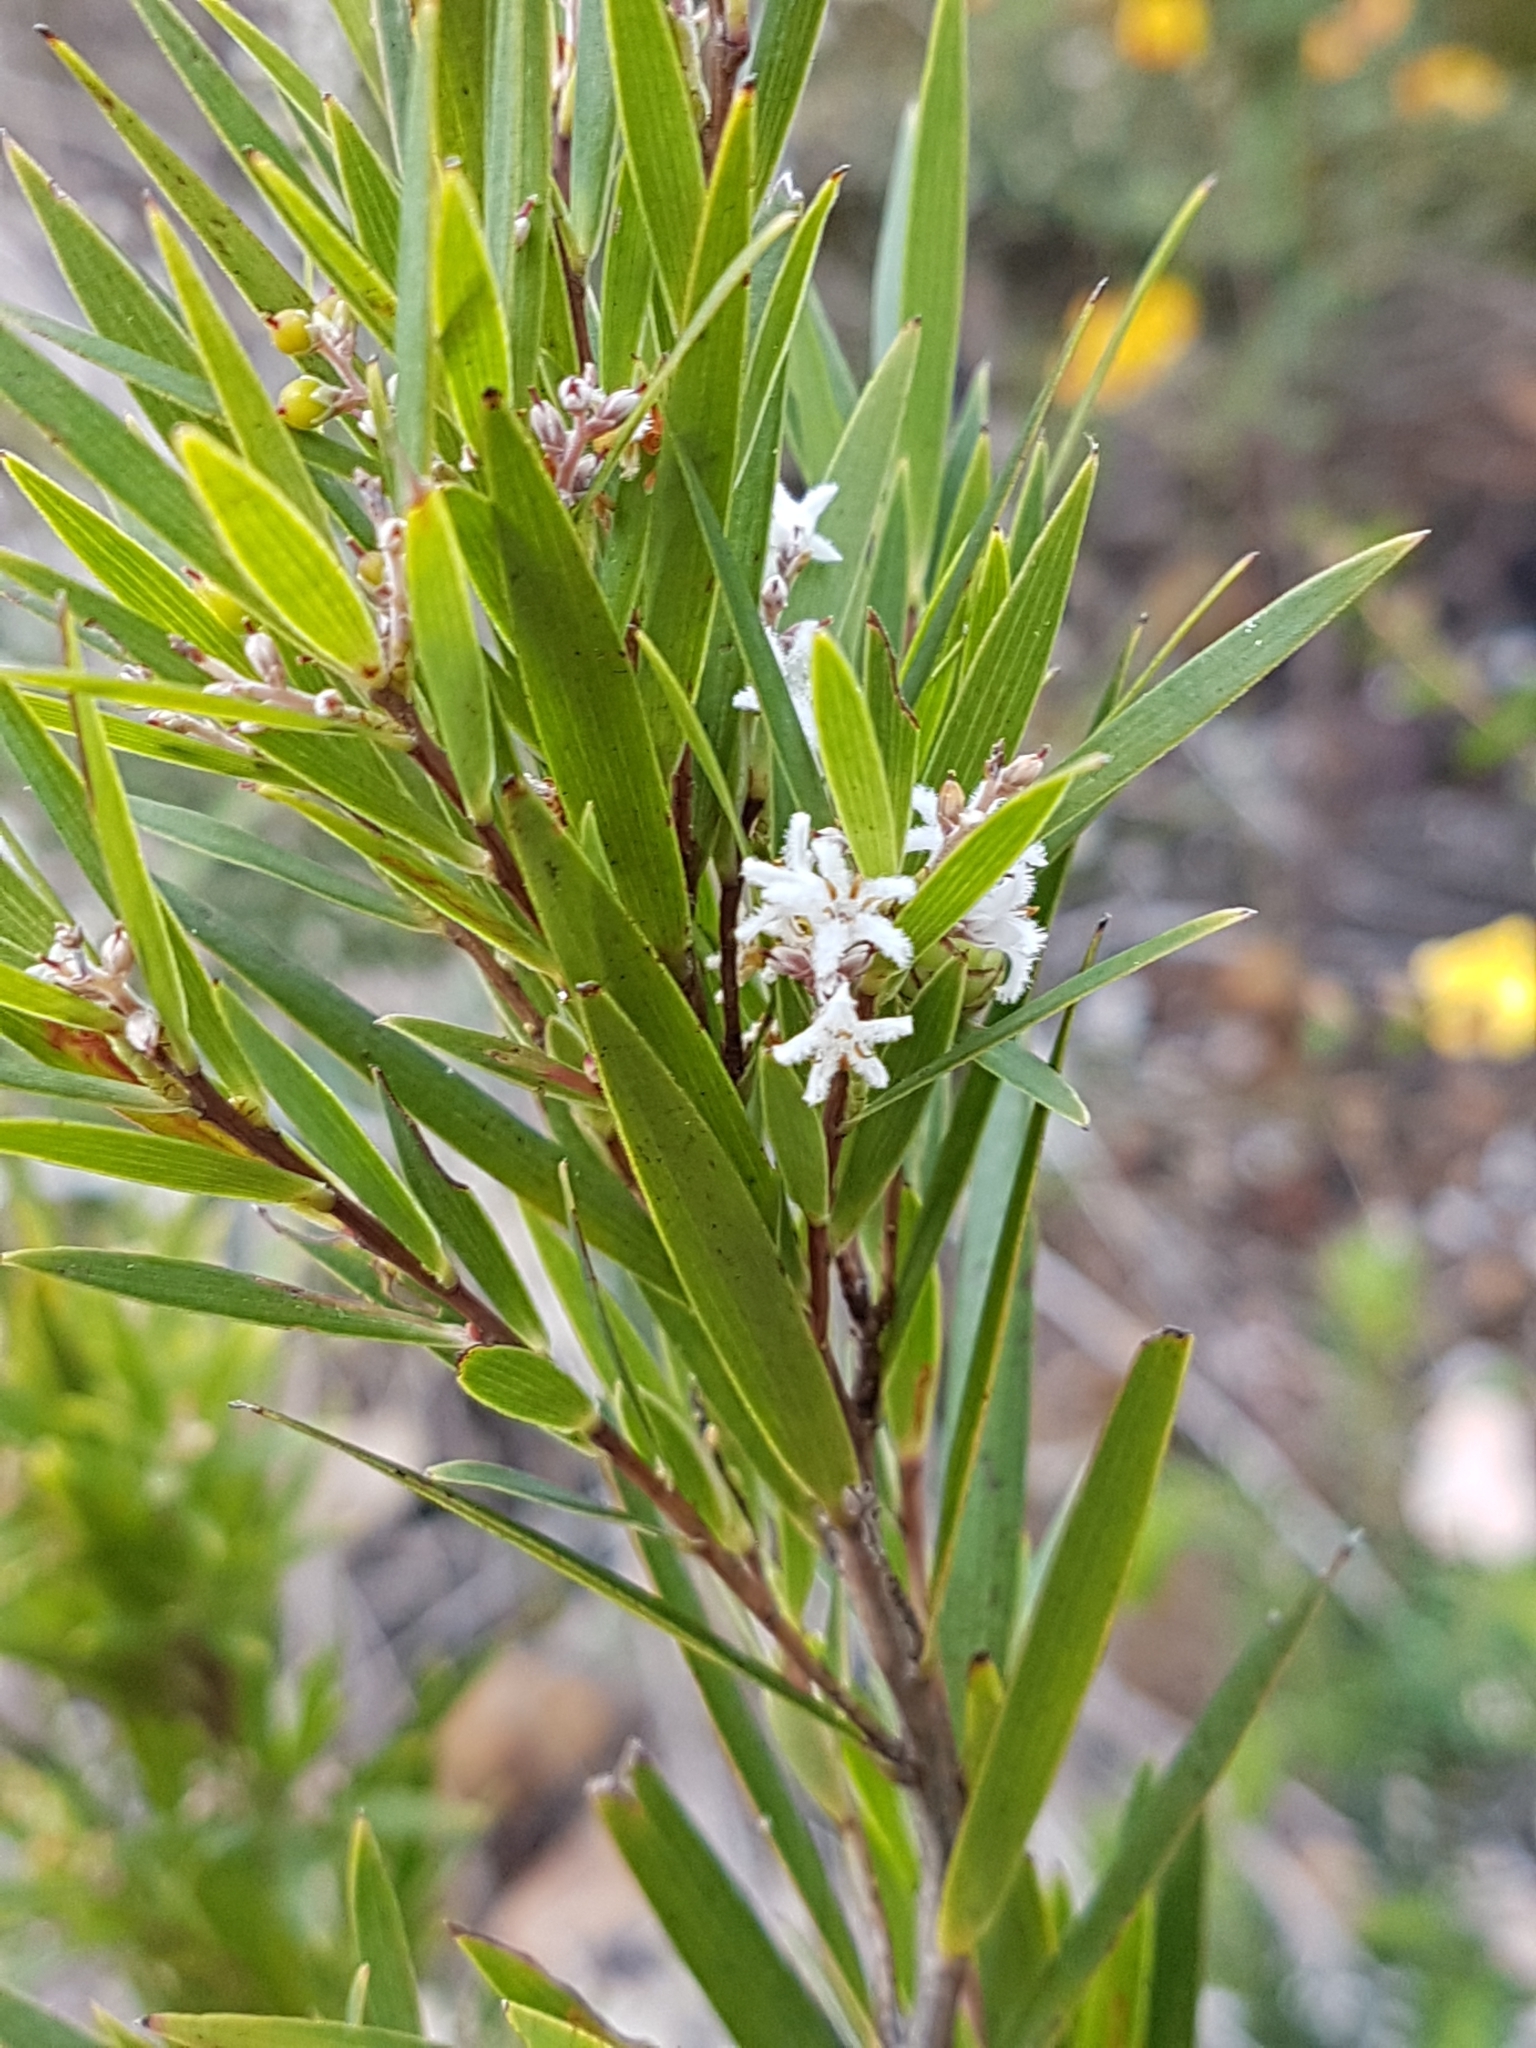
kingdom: Plantae
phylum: Tracheophyta
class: Magnoliopsida
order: Ericales
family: Ericaceae
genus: Leucopogon
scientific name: Leucopogon australis
